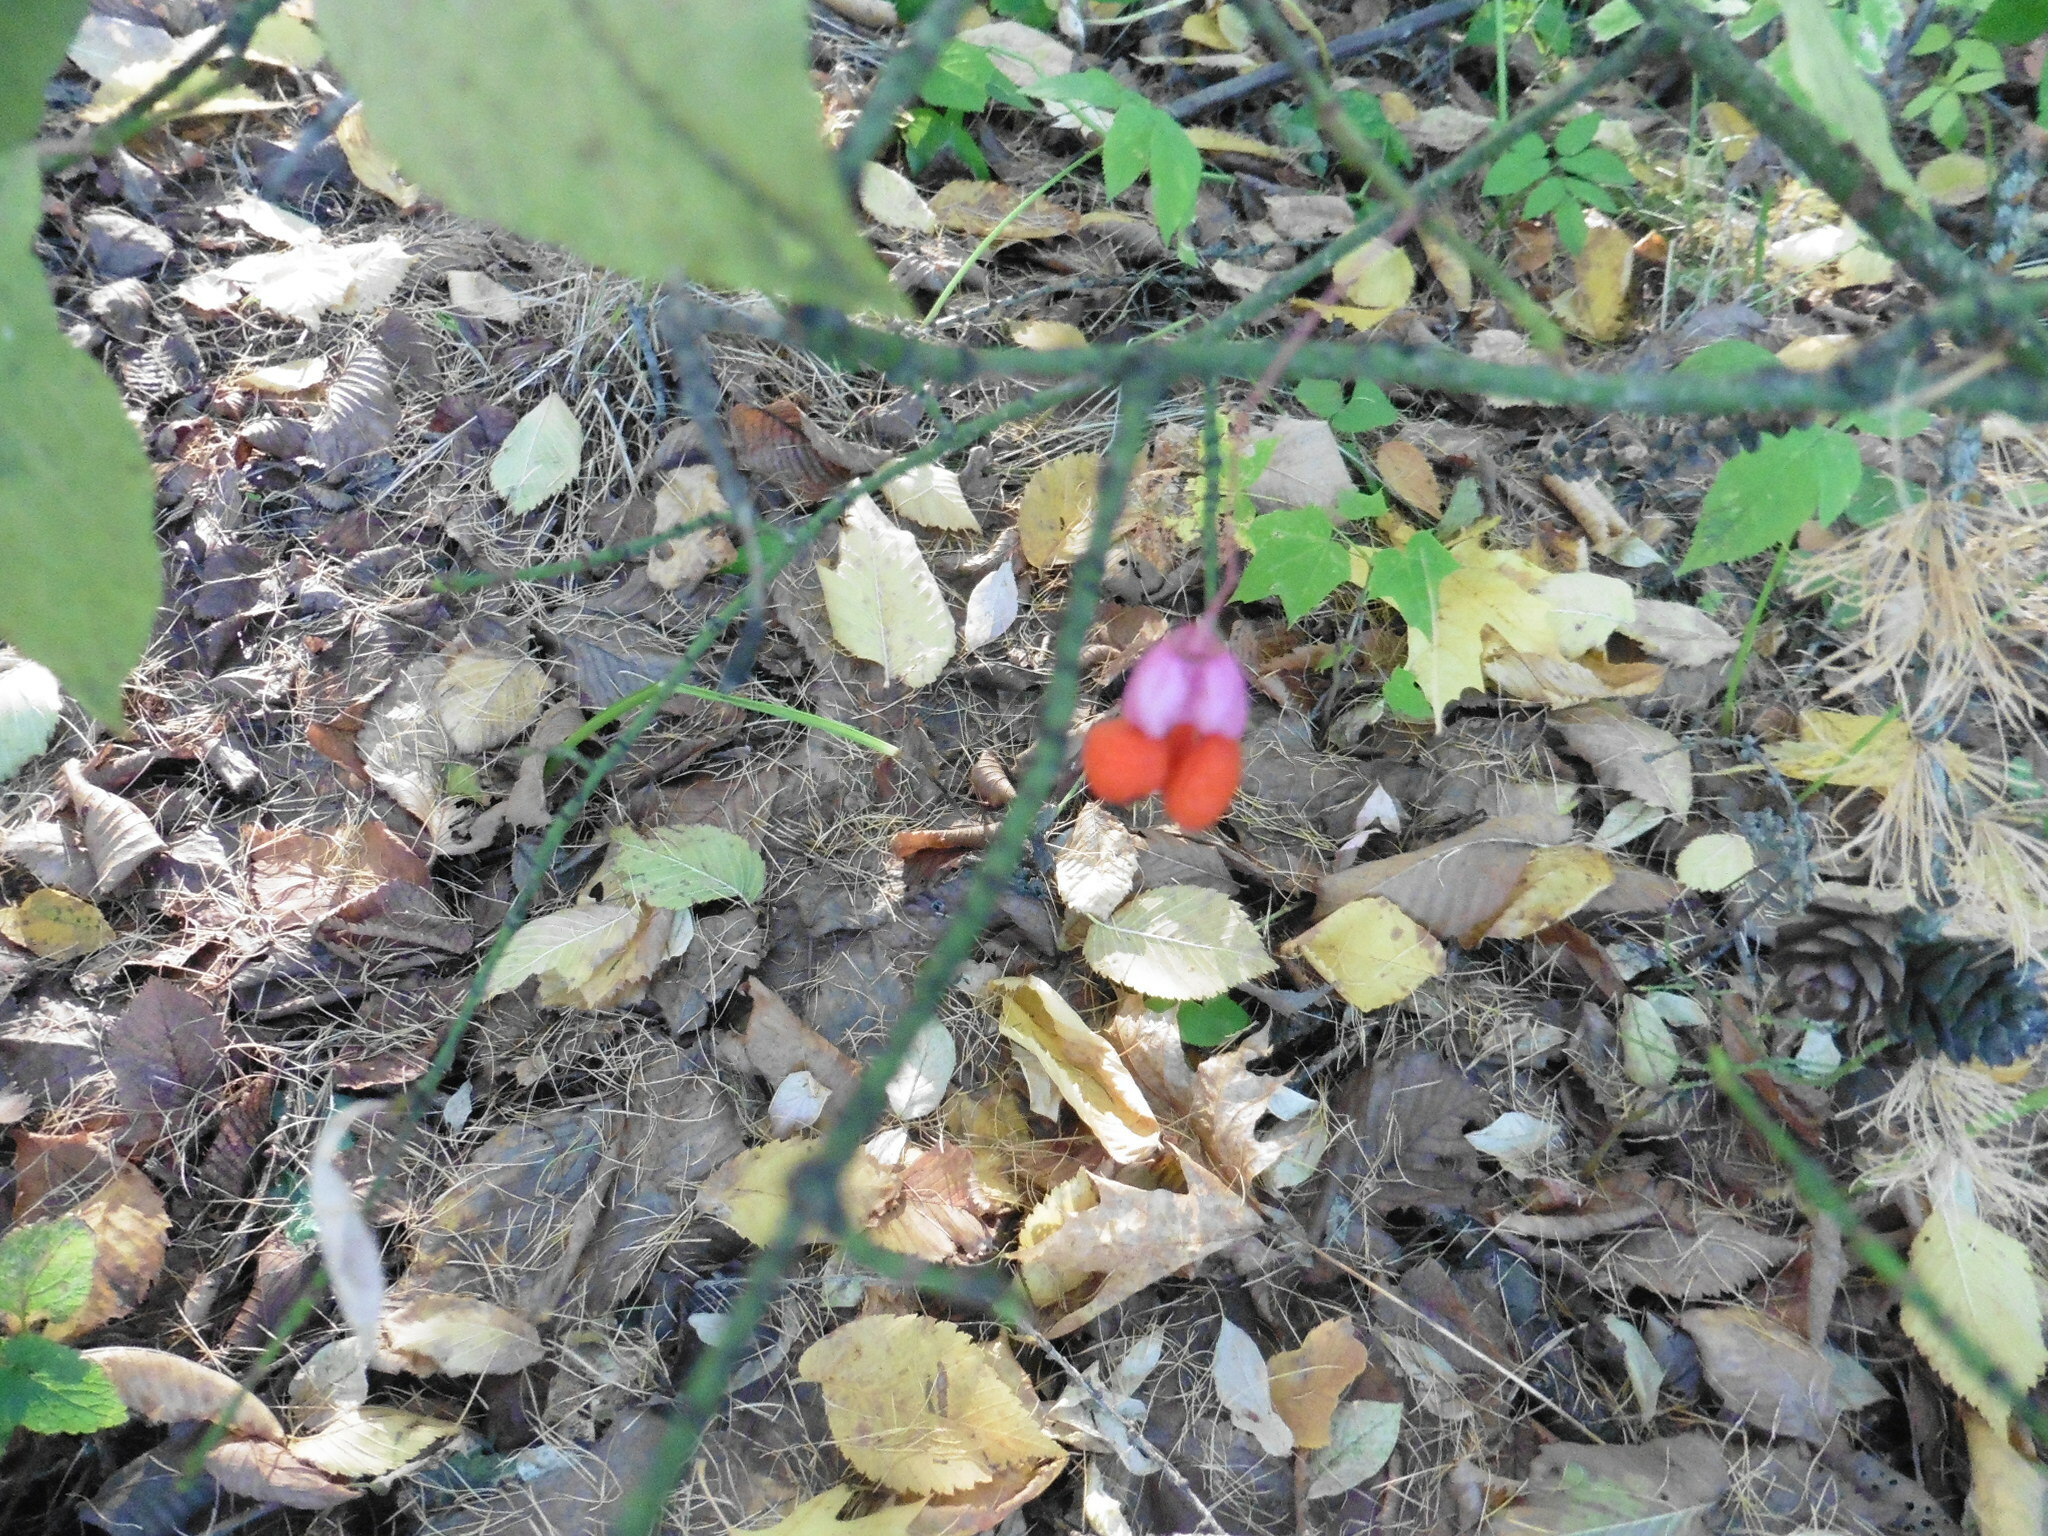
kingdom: Plantae
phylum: Tracheophyta
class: Magnoliopsida
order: Celastrales
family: Celastraceae
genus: Euonymus
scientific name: Euonymus verrucosus
